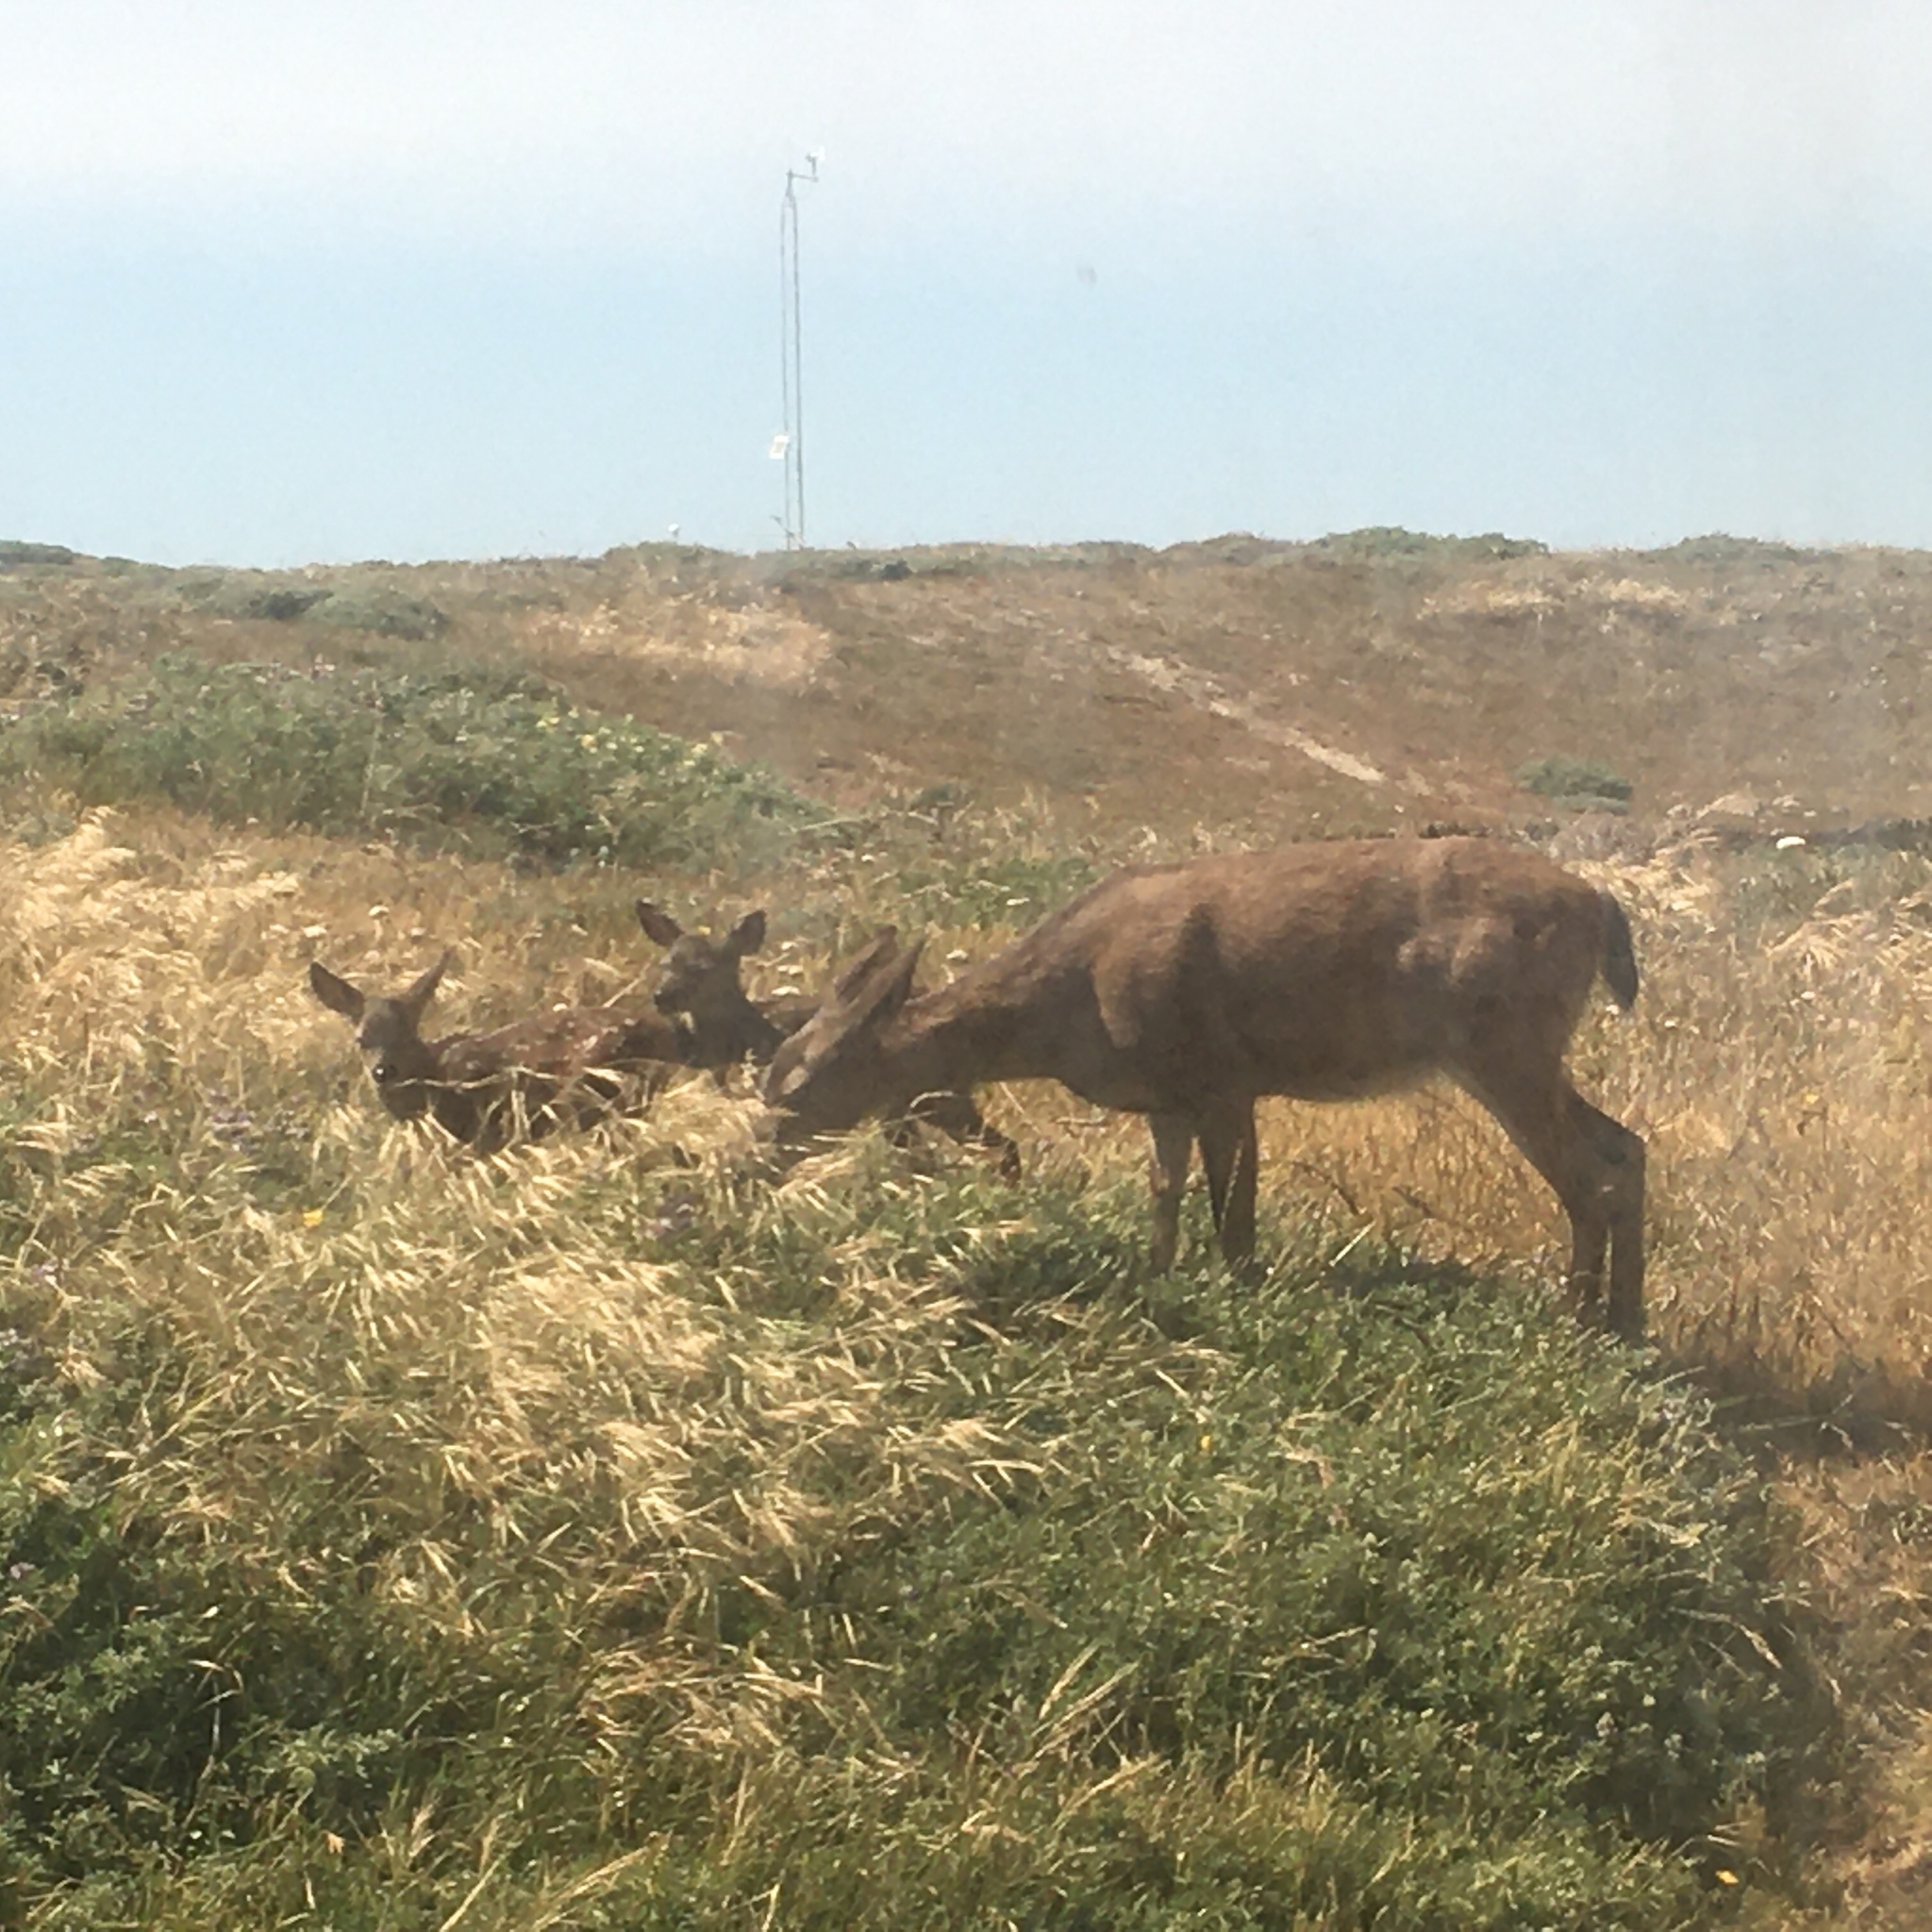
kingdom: Animalia
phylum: Chordata
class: Mammalia
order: Artiodactyla
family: Cervidae
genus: Odocoileus
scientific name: Odocoileus hemionus
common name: Mule deer
